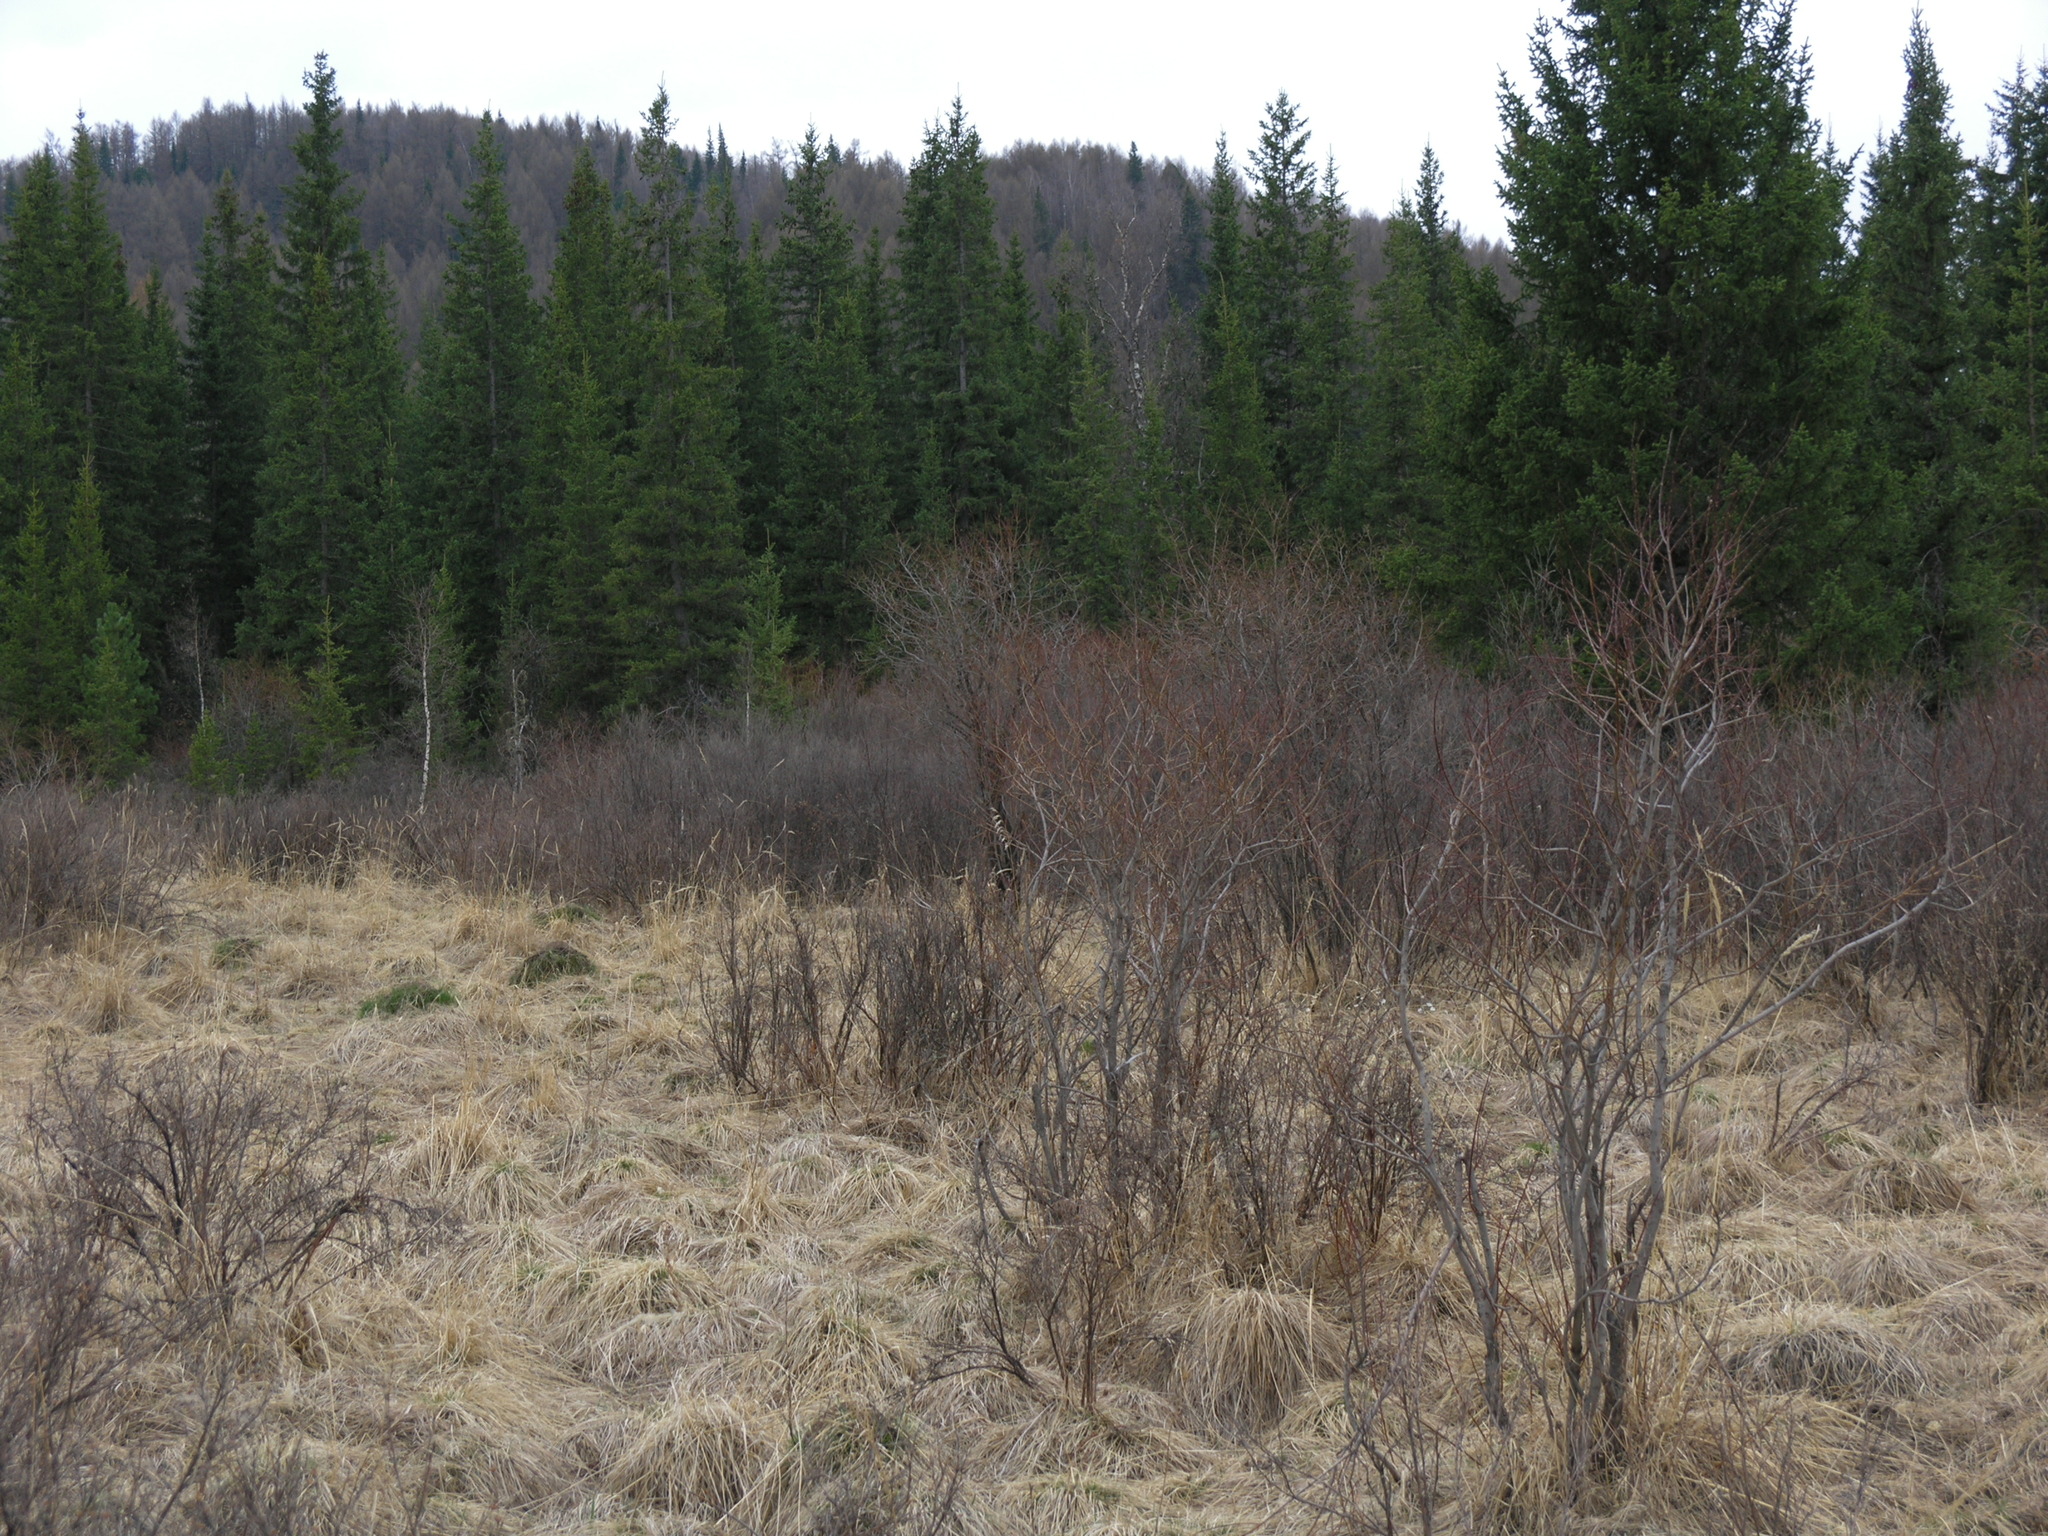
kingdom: Plantae
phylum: Tracheophyta
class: Pinopsida
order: Pinales
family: Pinaceae
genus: Picea
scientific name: Picea obovata
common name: Siberian spruce
